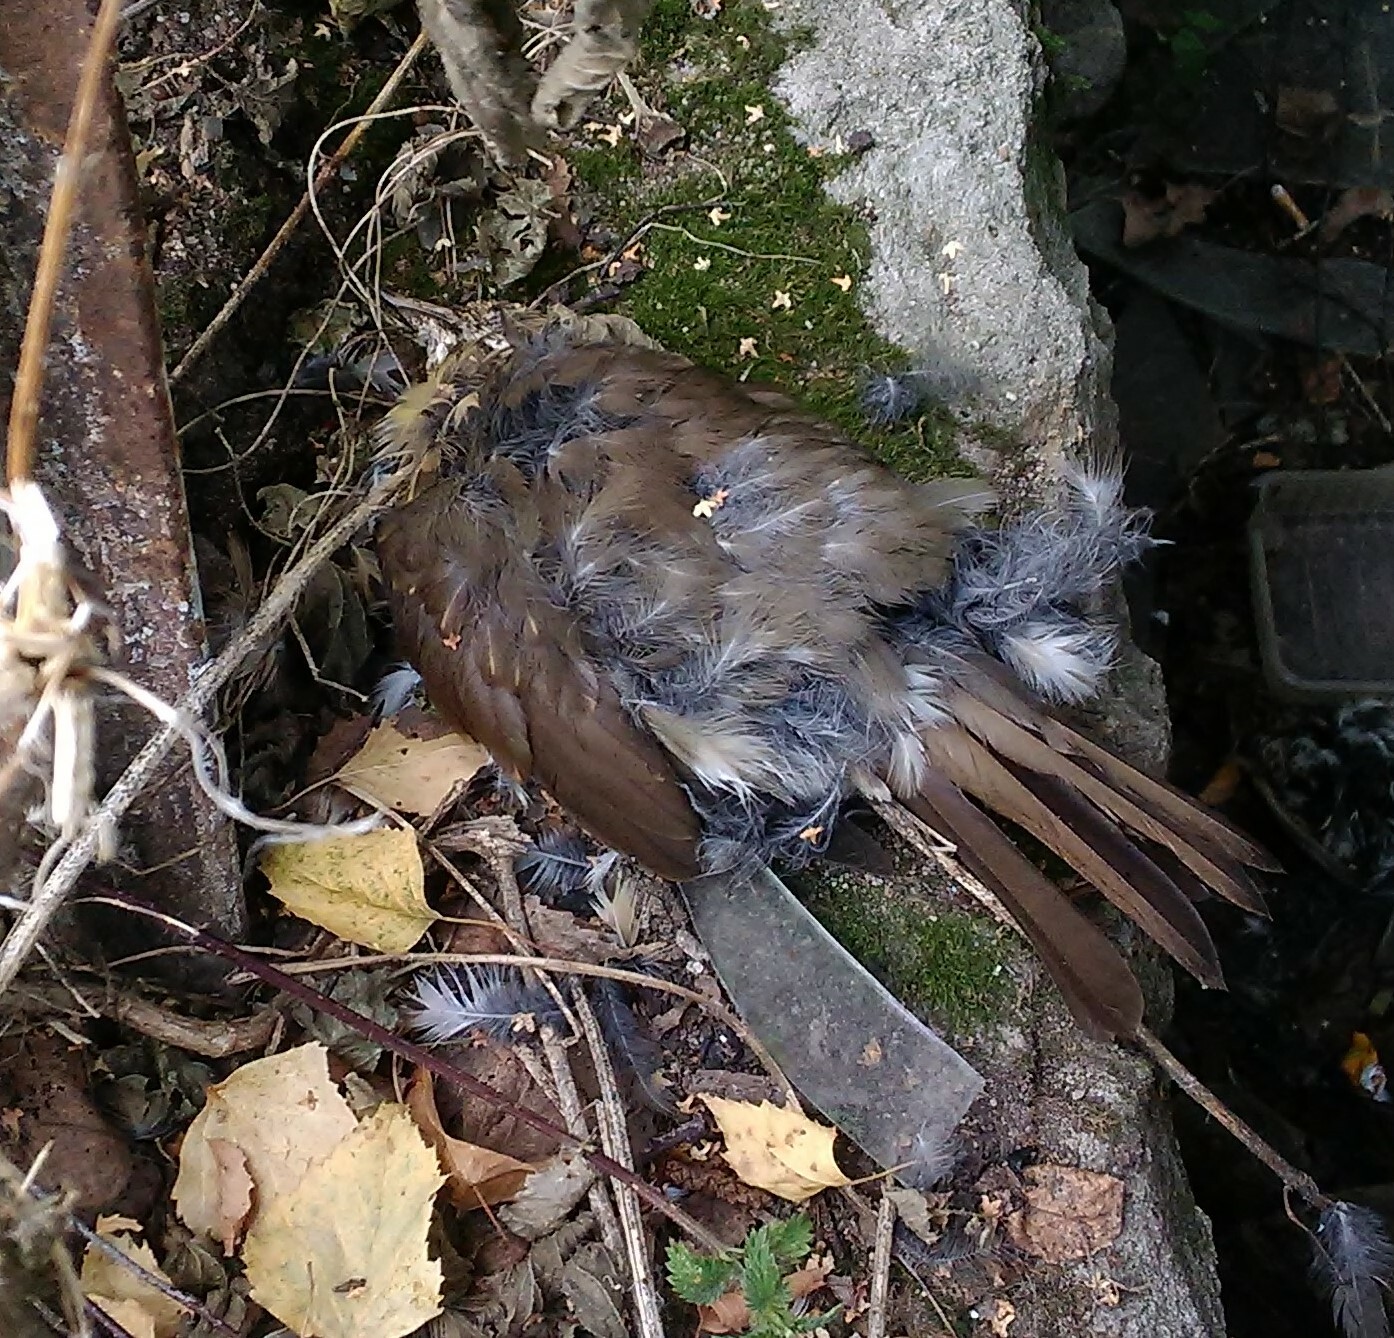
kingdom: Animalia
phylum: Chordata
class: Aves
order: Passeriformes
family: Turdidae
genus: Turdus
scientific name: Turdus philomelos
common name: Song thrush
